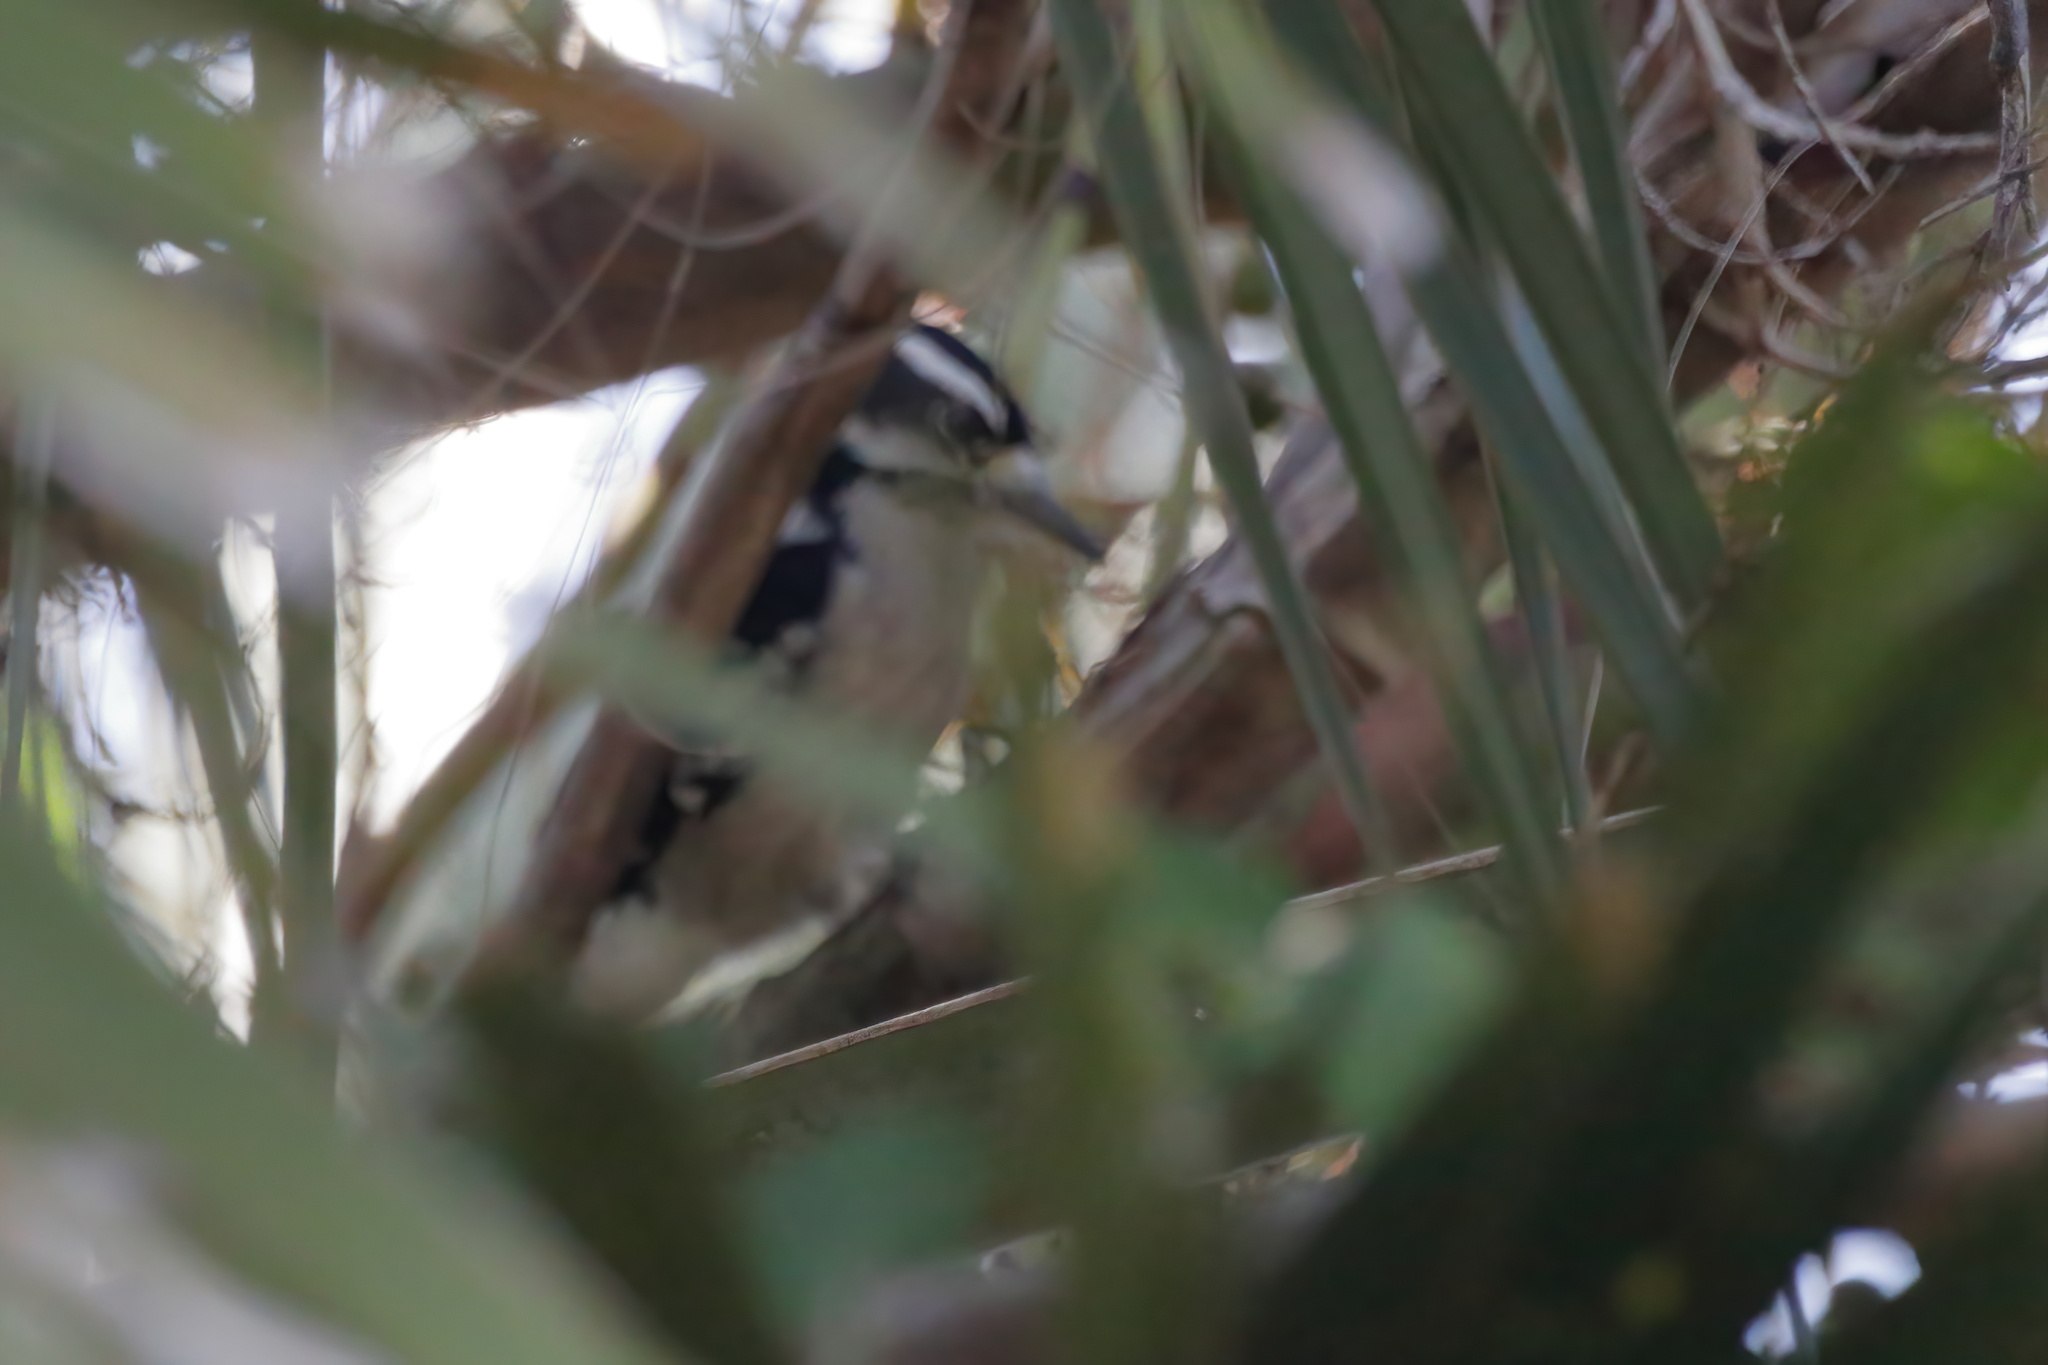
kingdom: Animalia
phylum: Chordata
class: Aves
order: Piciformes
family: Picidae
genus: Dryobates
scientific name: Dryobates pubescens
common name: Downy woodpecker
